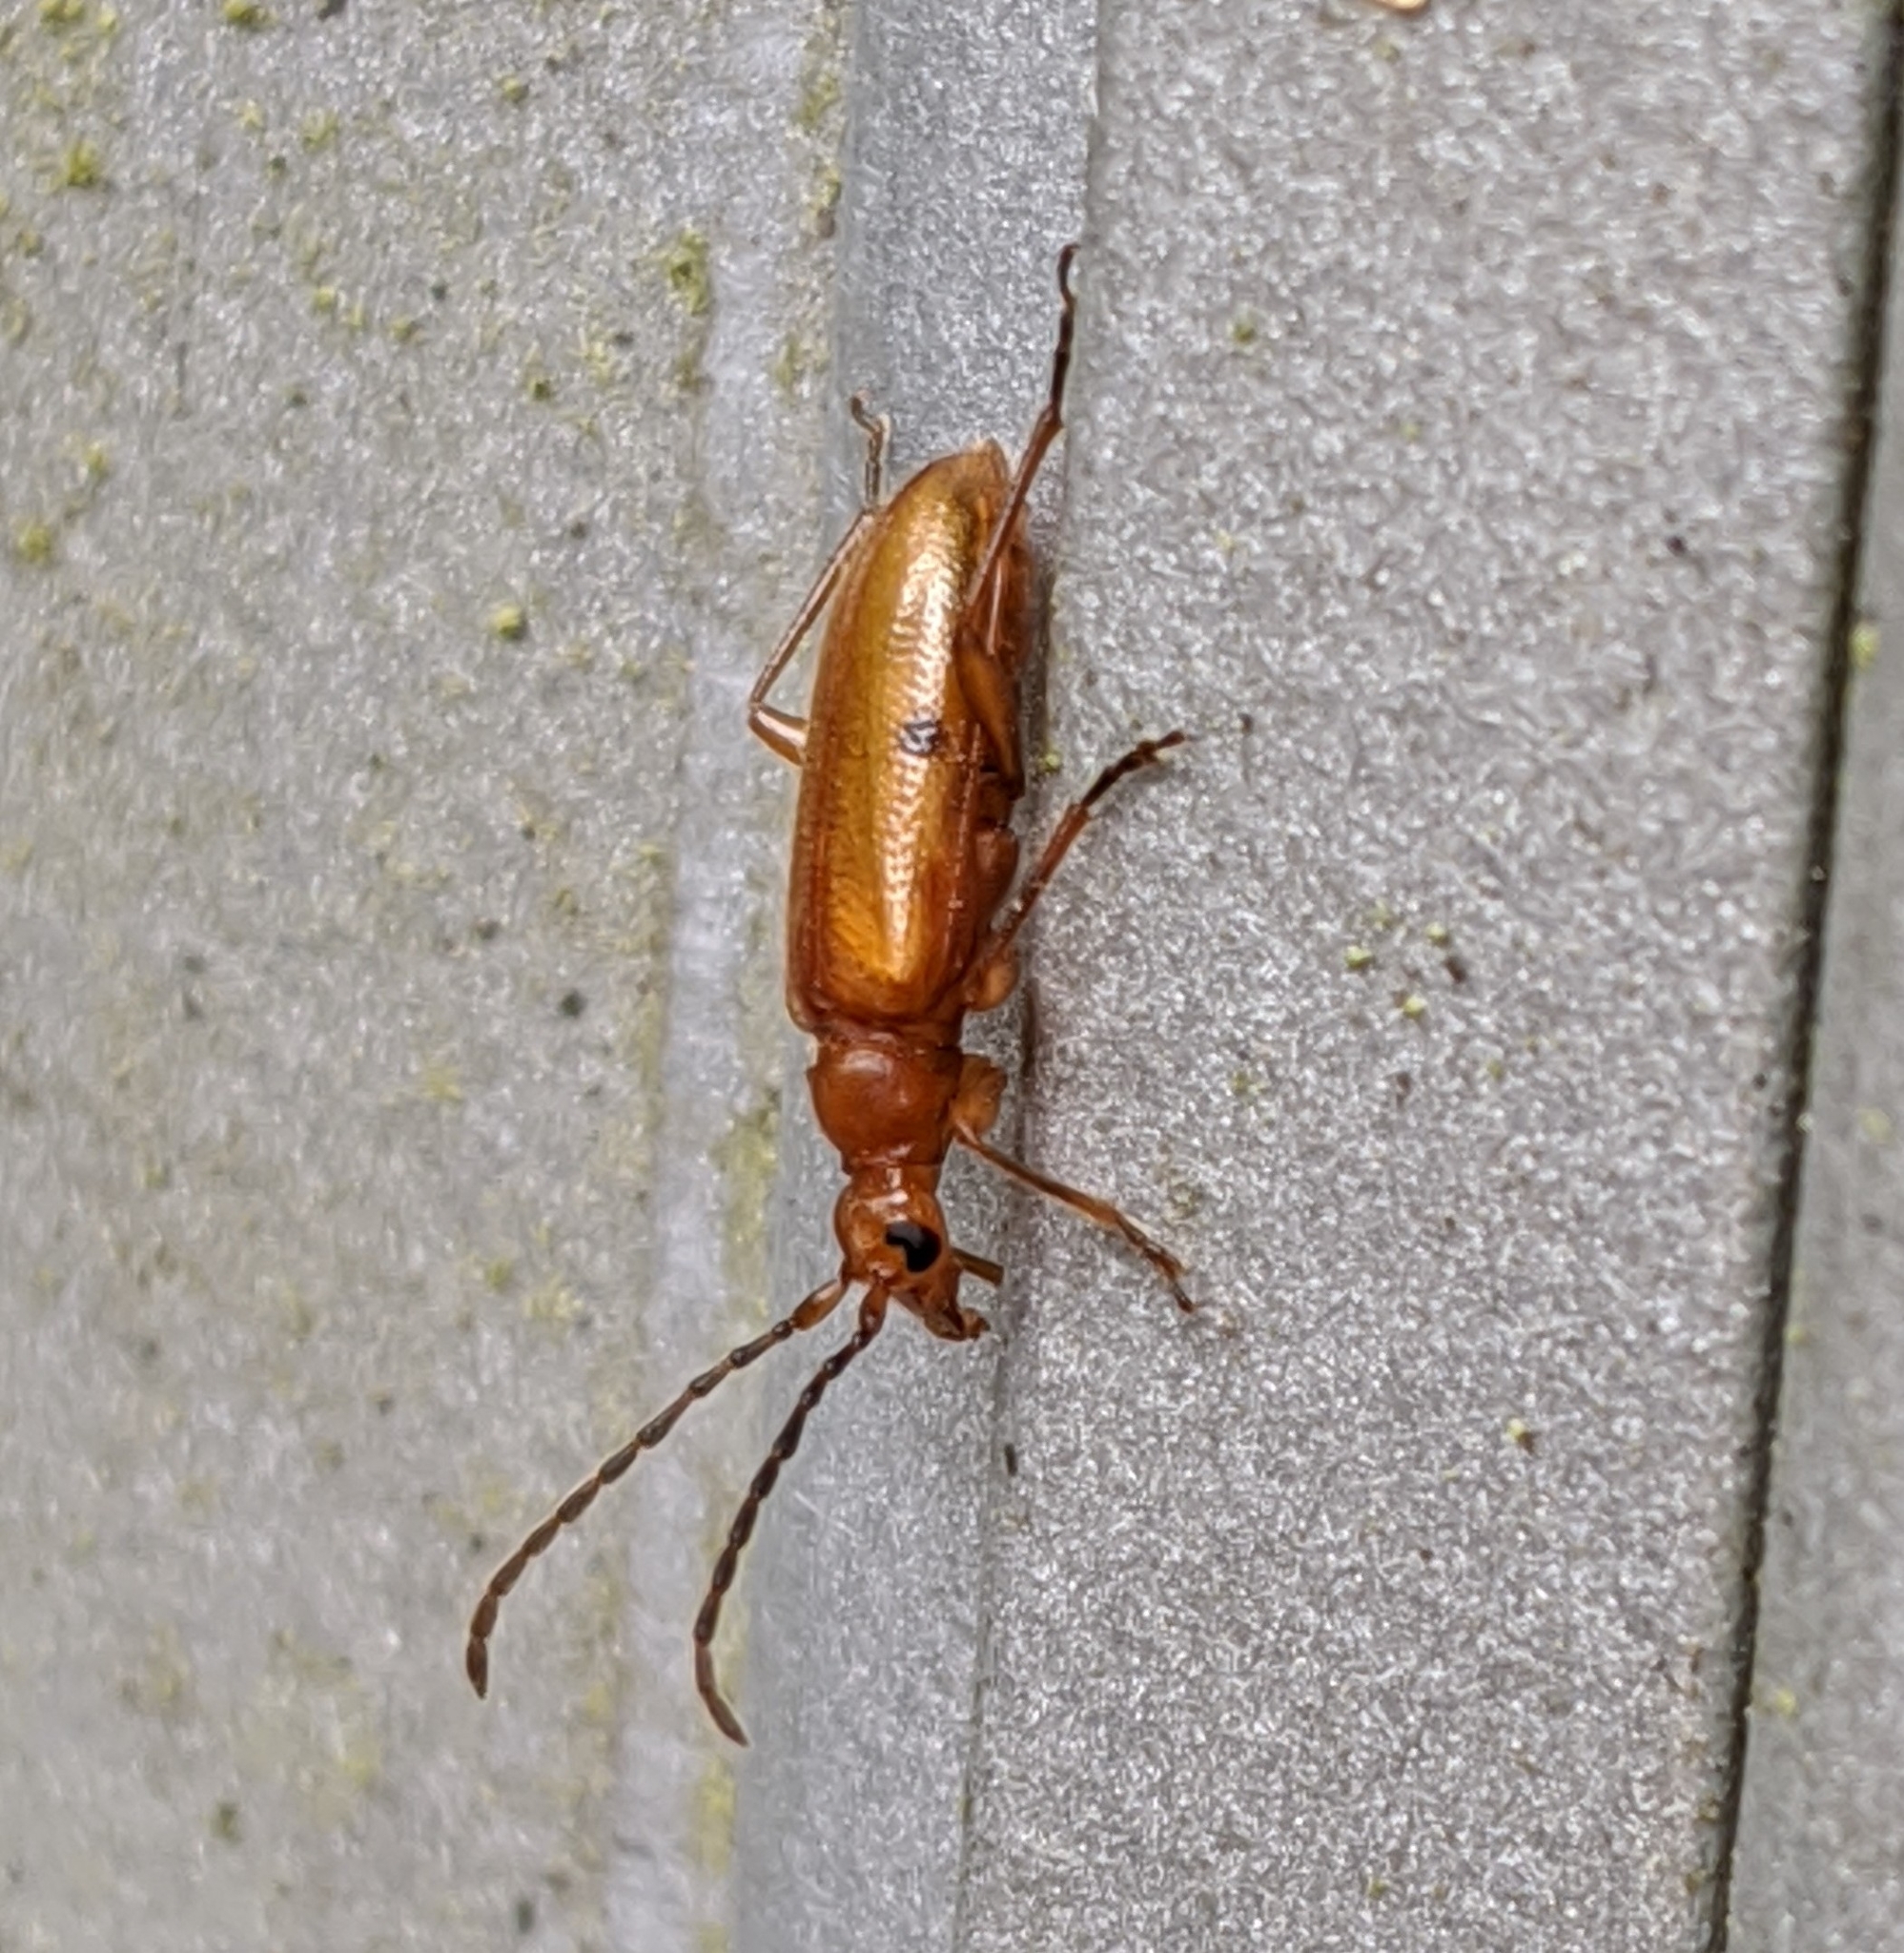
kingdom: Animalia
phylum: Arthropoda
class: Insecta
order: Coleoptera
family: Cerambycidae
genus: Pidonia
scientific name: Pidonia quadrata
